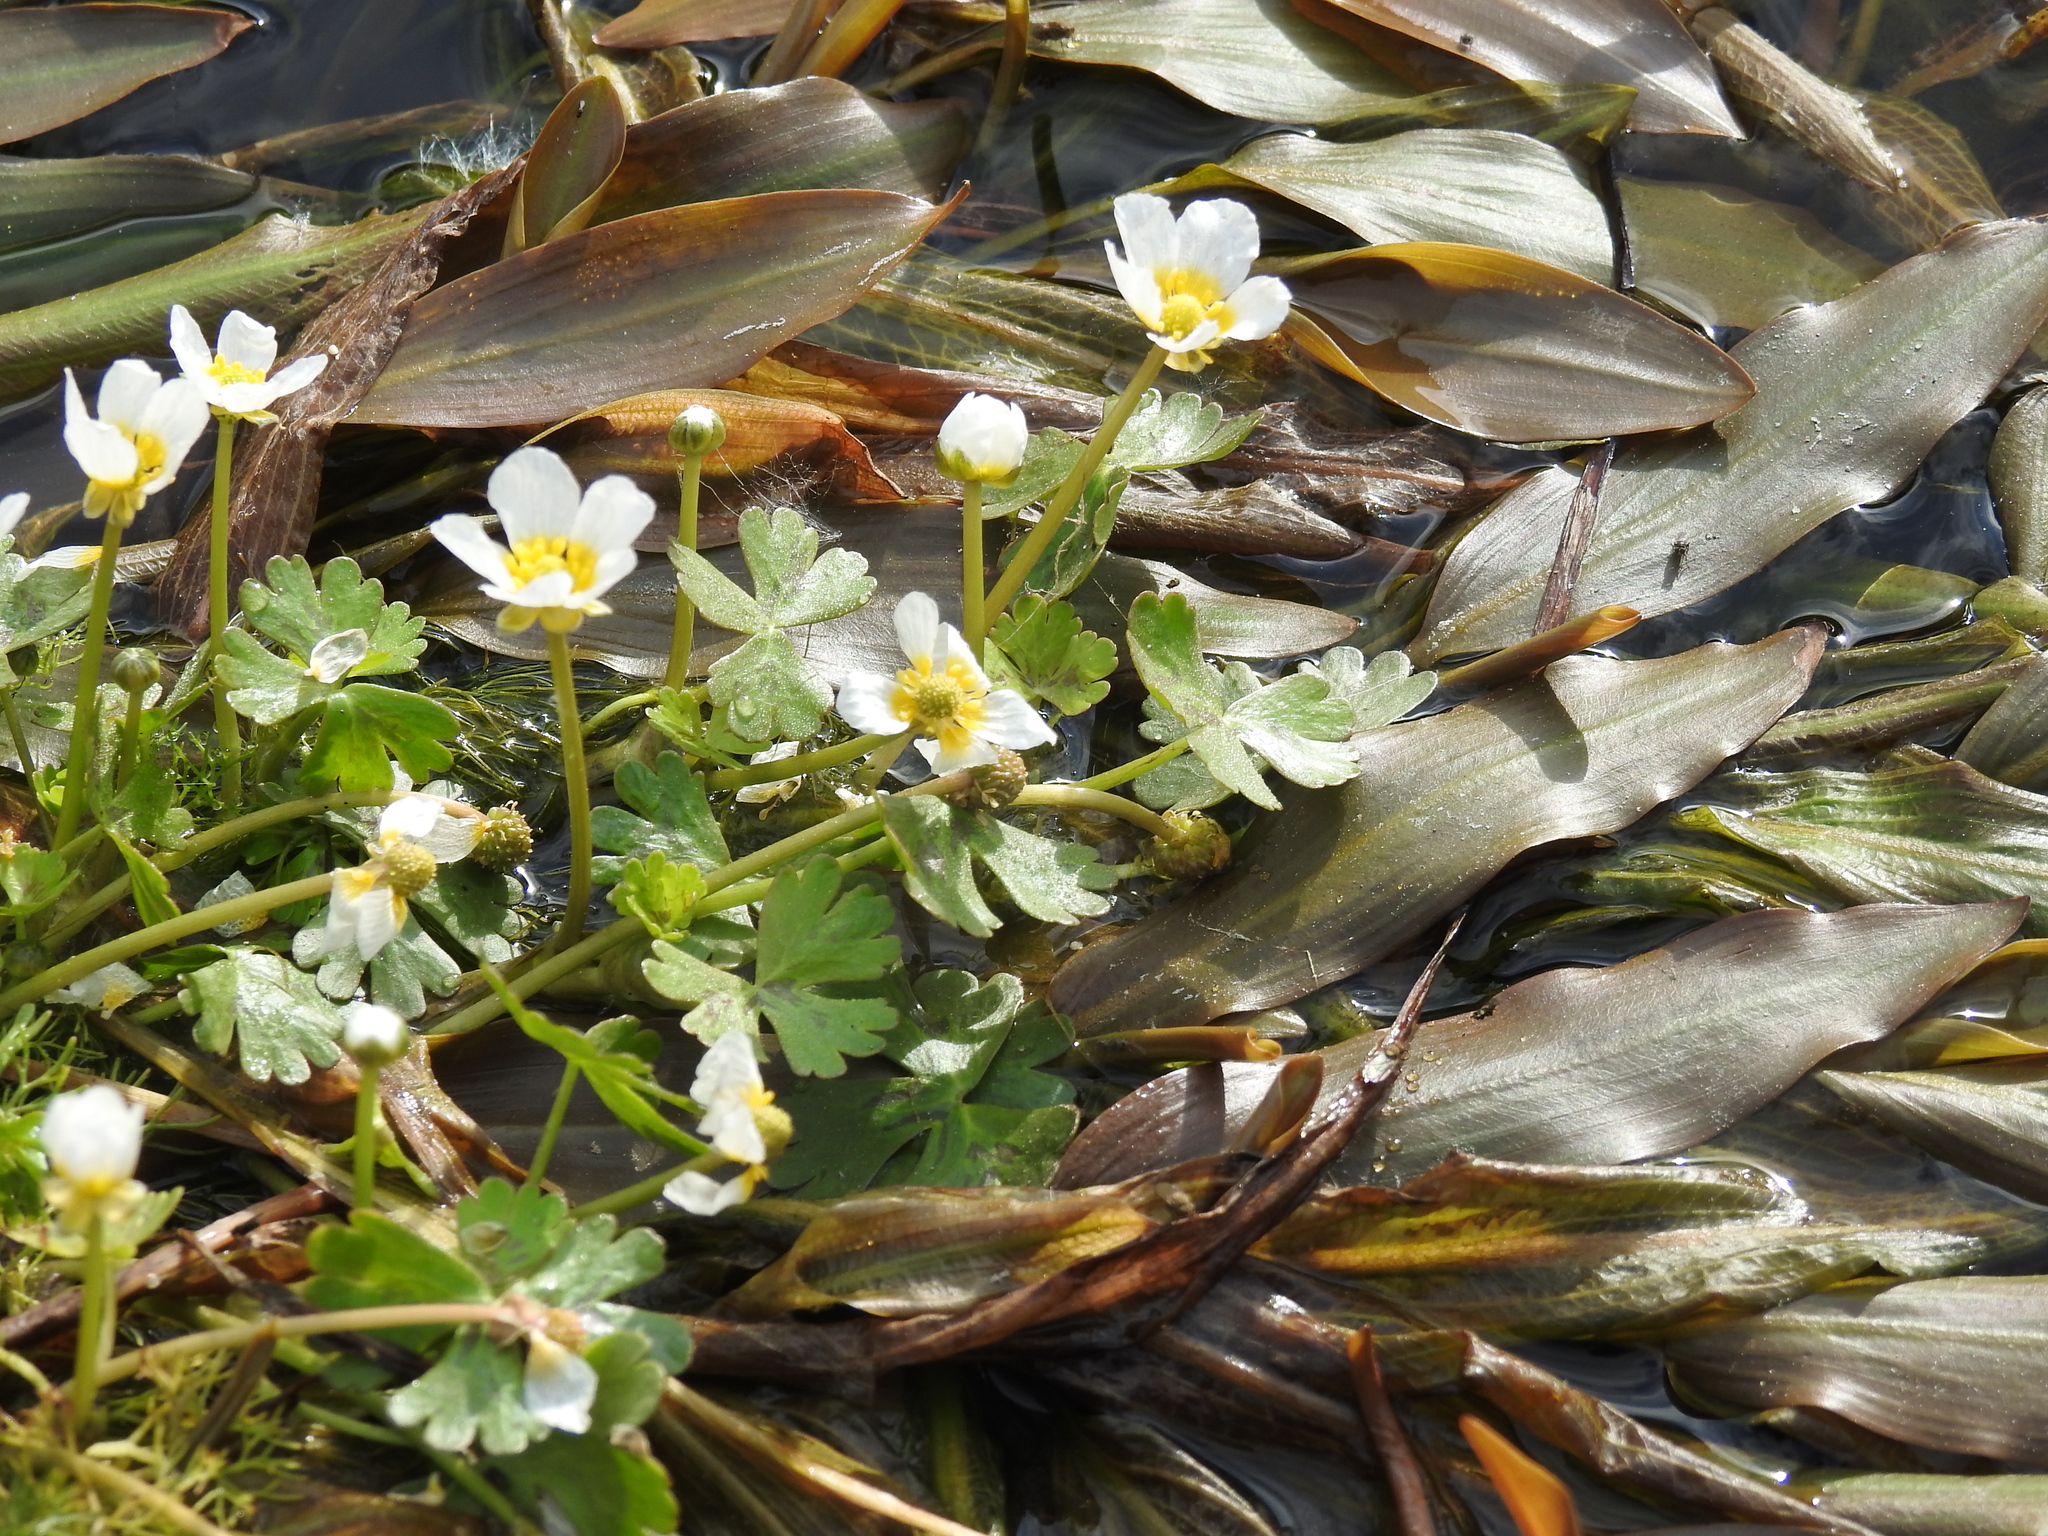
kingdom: Plantae
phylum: Tracheophyta
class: Magnoliopsida
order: Ranunculales
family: Ranunculaceae
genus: Ranunculus
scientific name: Ranunculus aquatilis
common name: Common water-crowfoot
